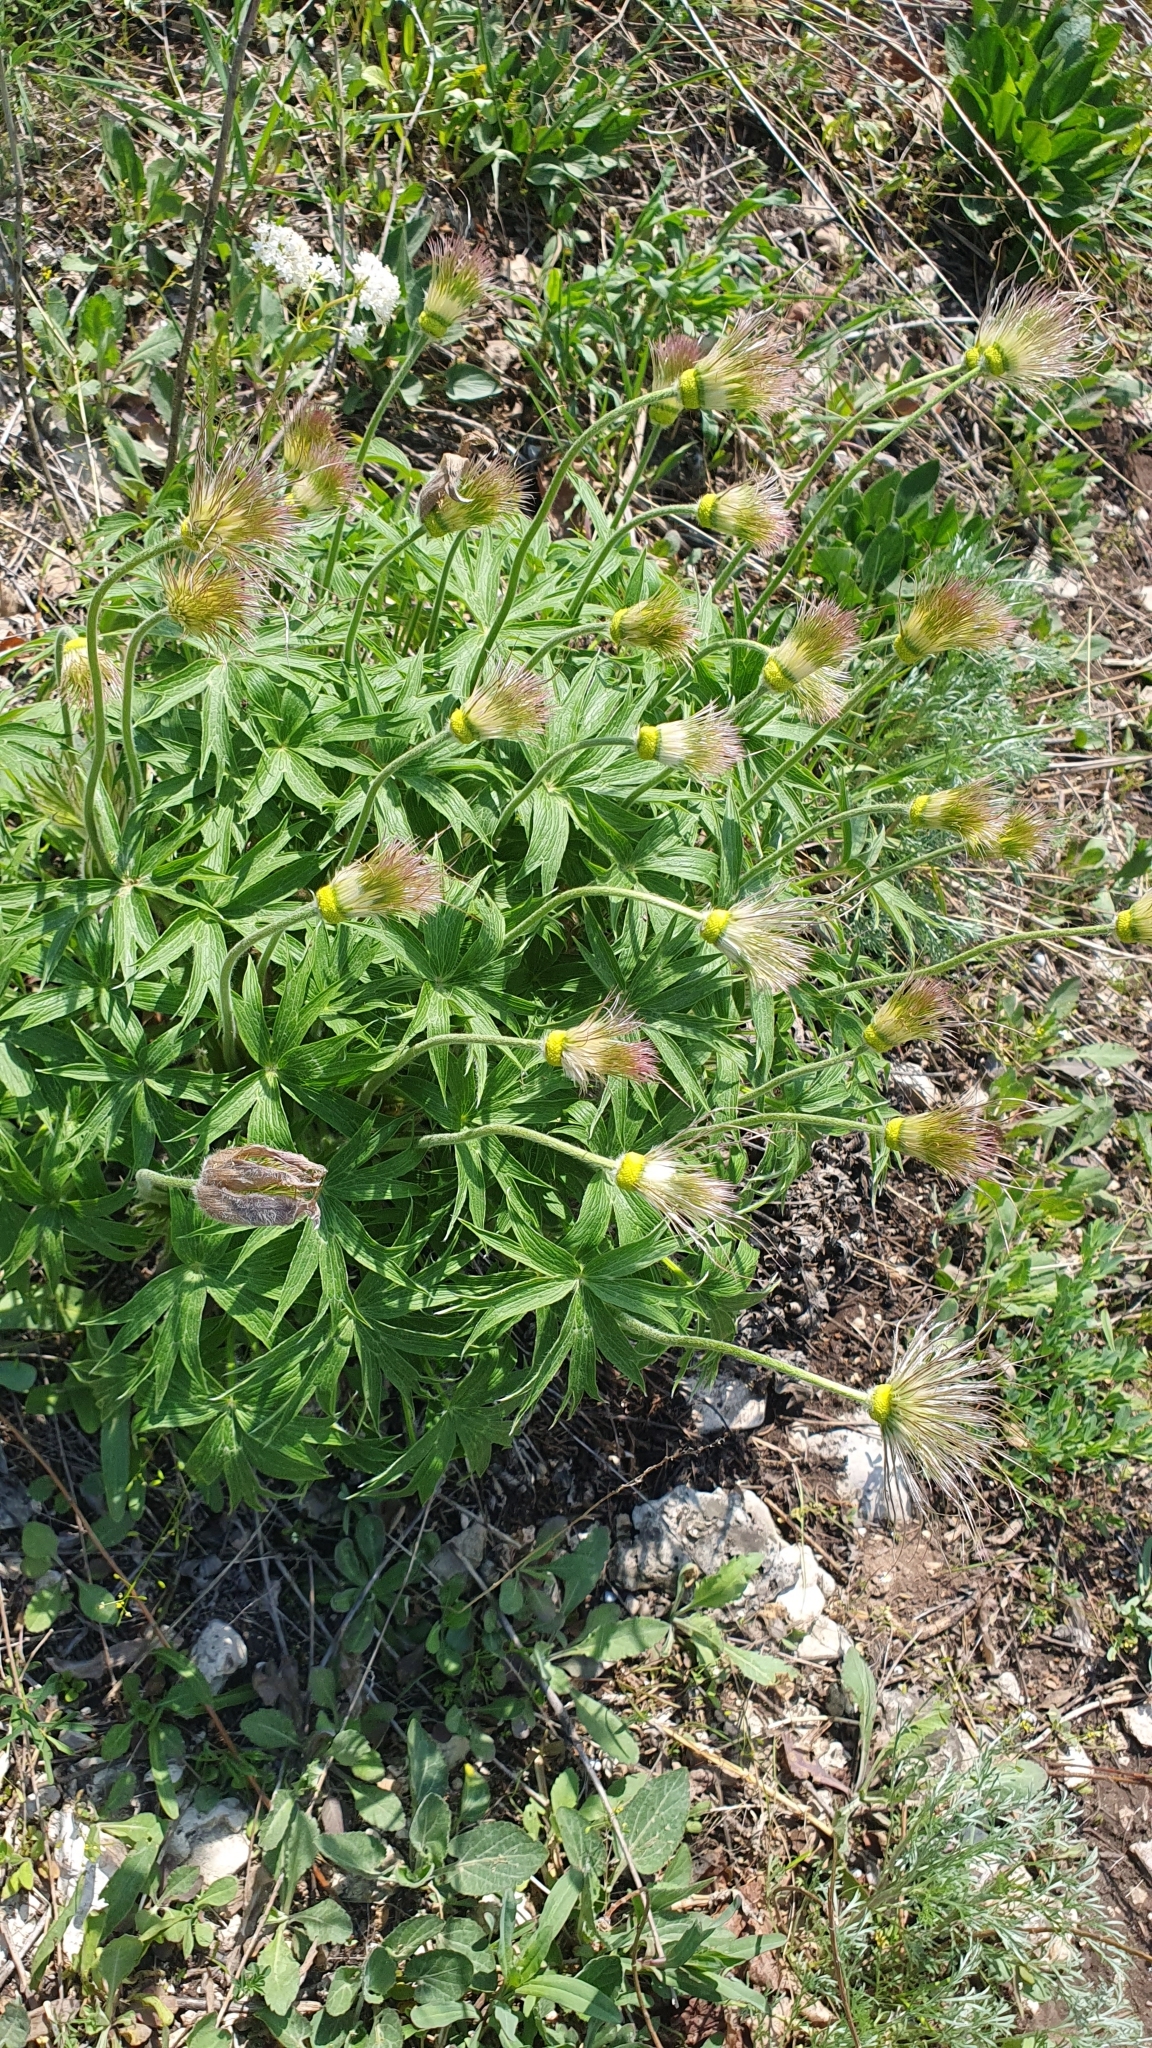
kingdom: Plantae
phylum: Tracheophyta
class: Magnoliopsida
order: Ranunculales
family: Ranunculaceae
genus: Pulsatilla
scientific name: Pulsatilla patens
